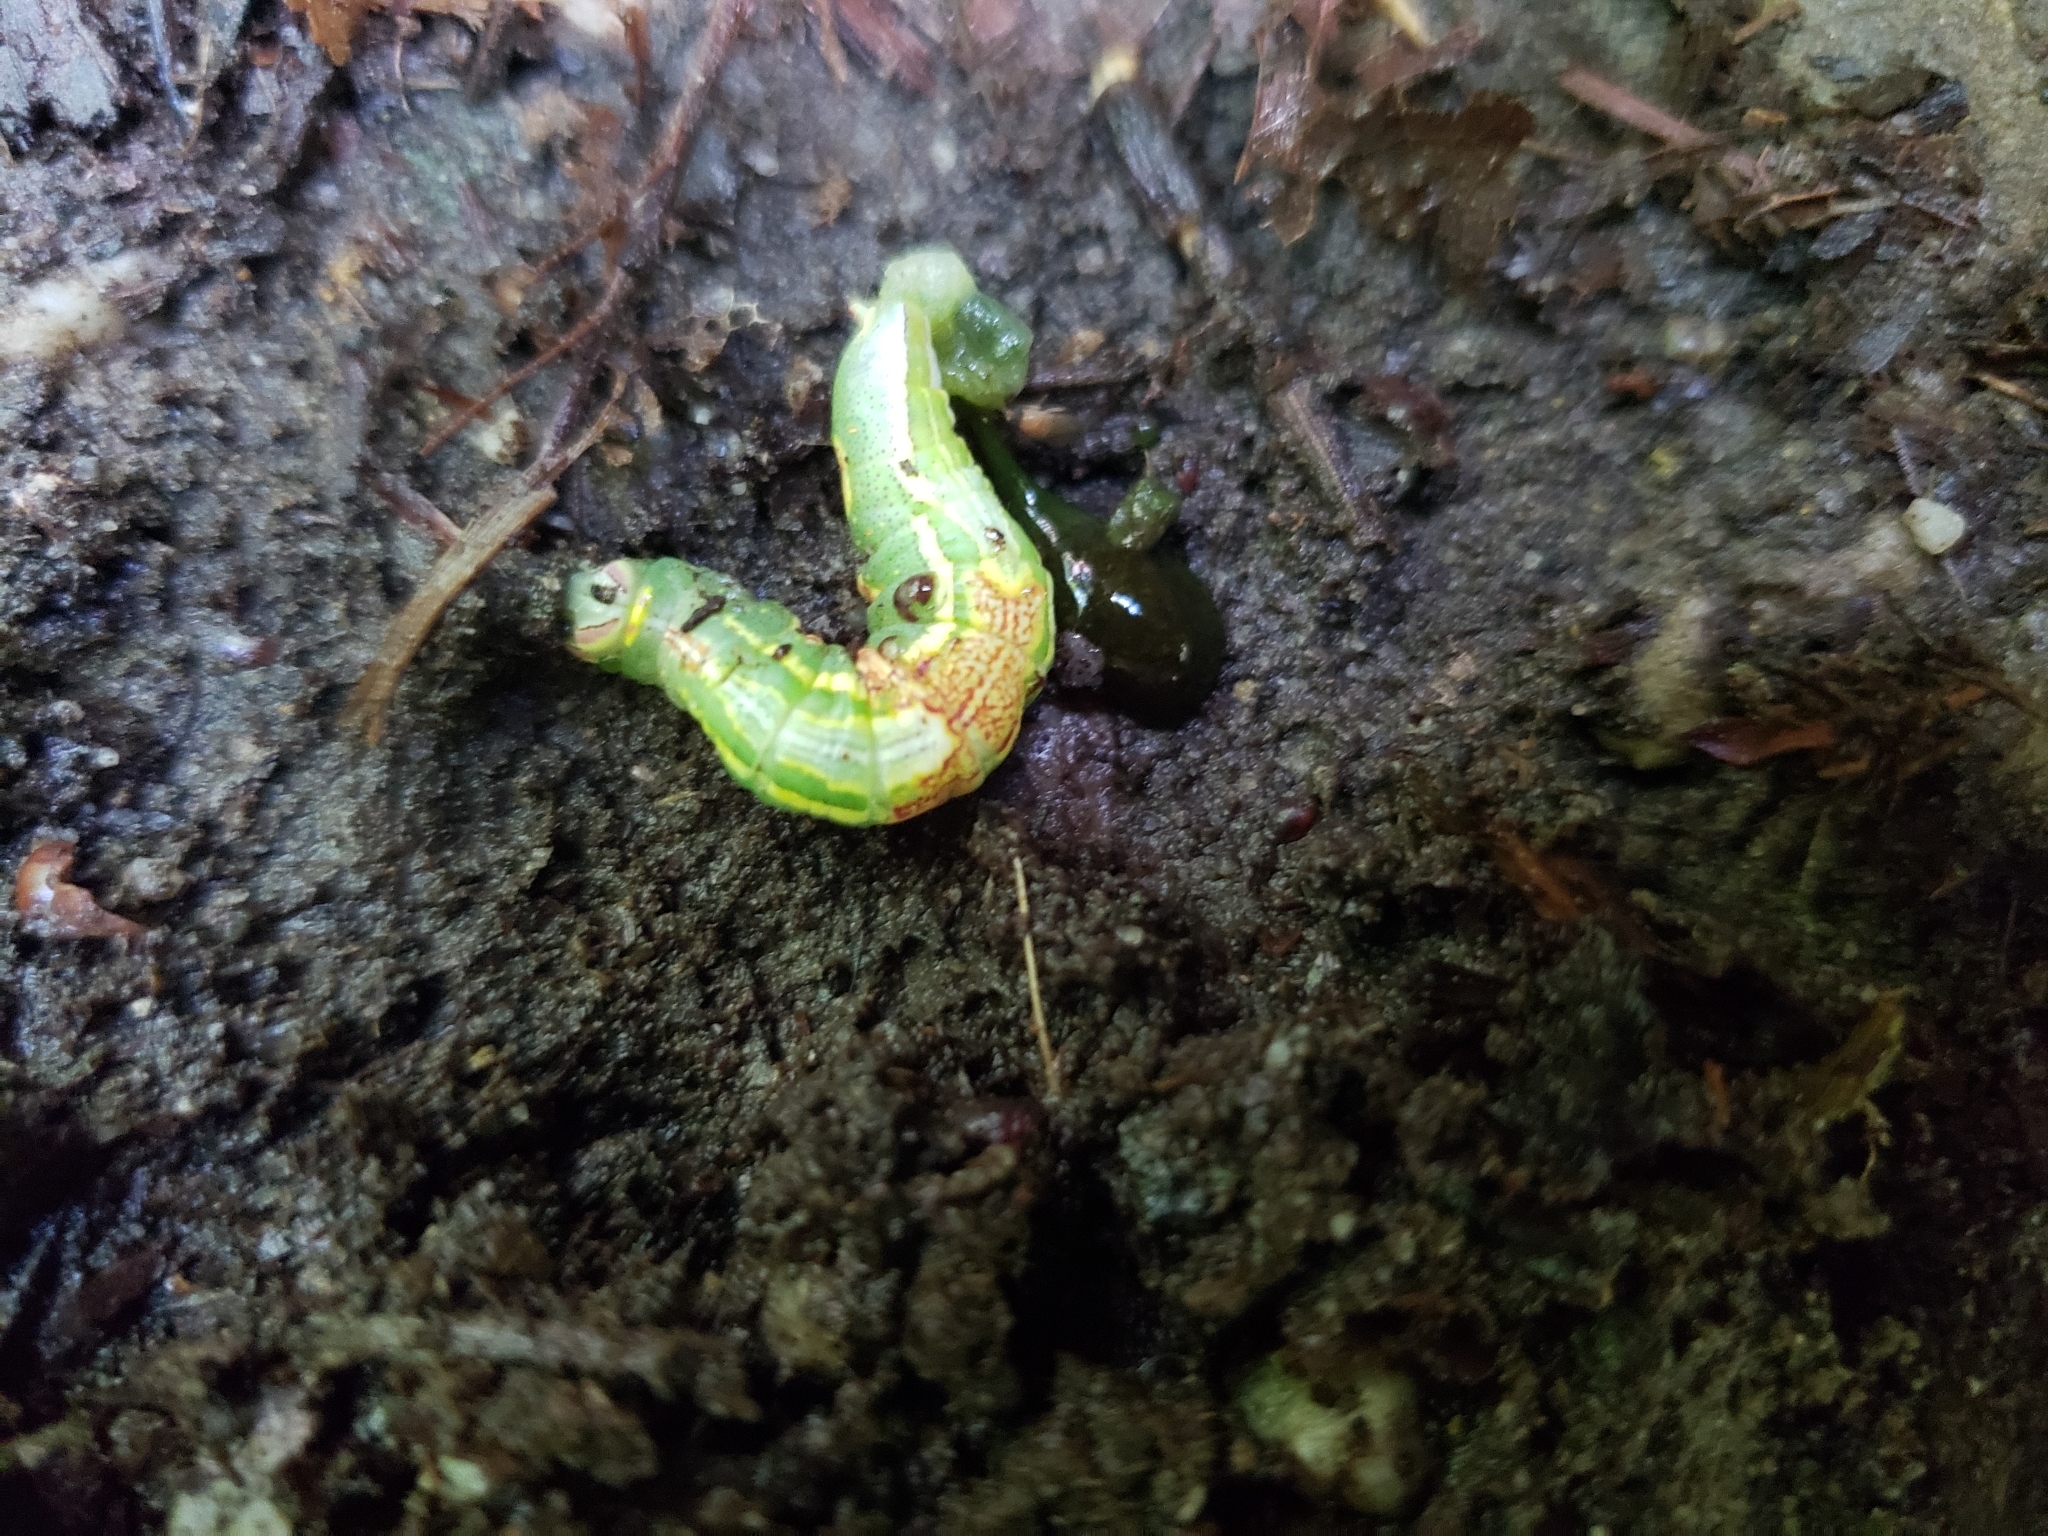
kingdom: Animalia
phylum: Arthropoda
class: Insecta
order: Lepidoptera
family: Notodontidae
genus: Disphragis
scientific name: Disphragis Cecrita guttivitta
